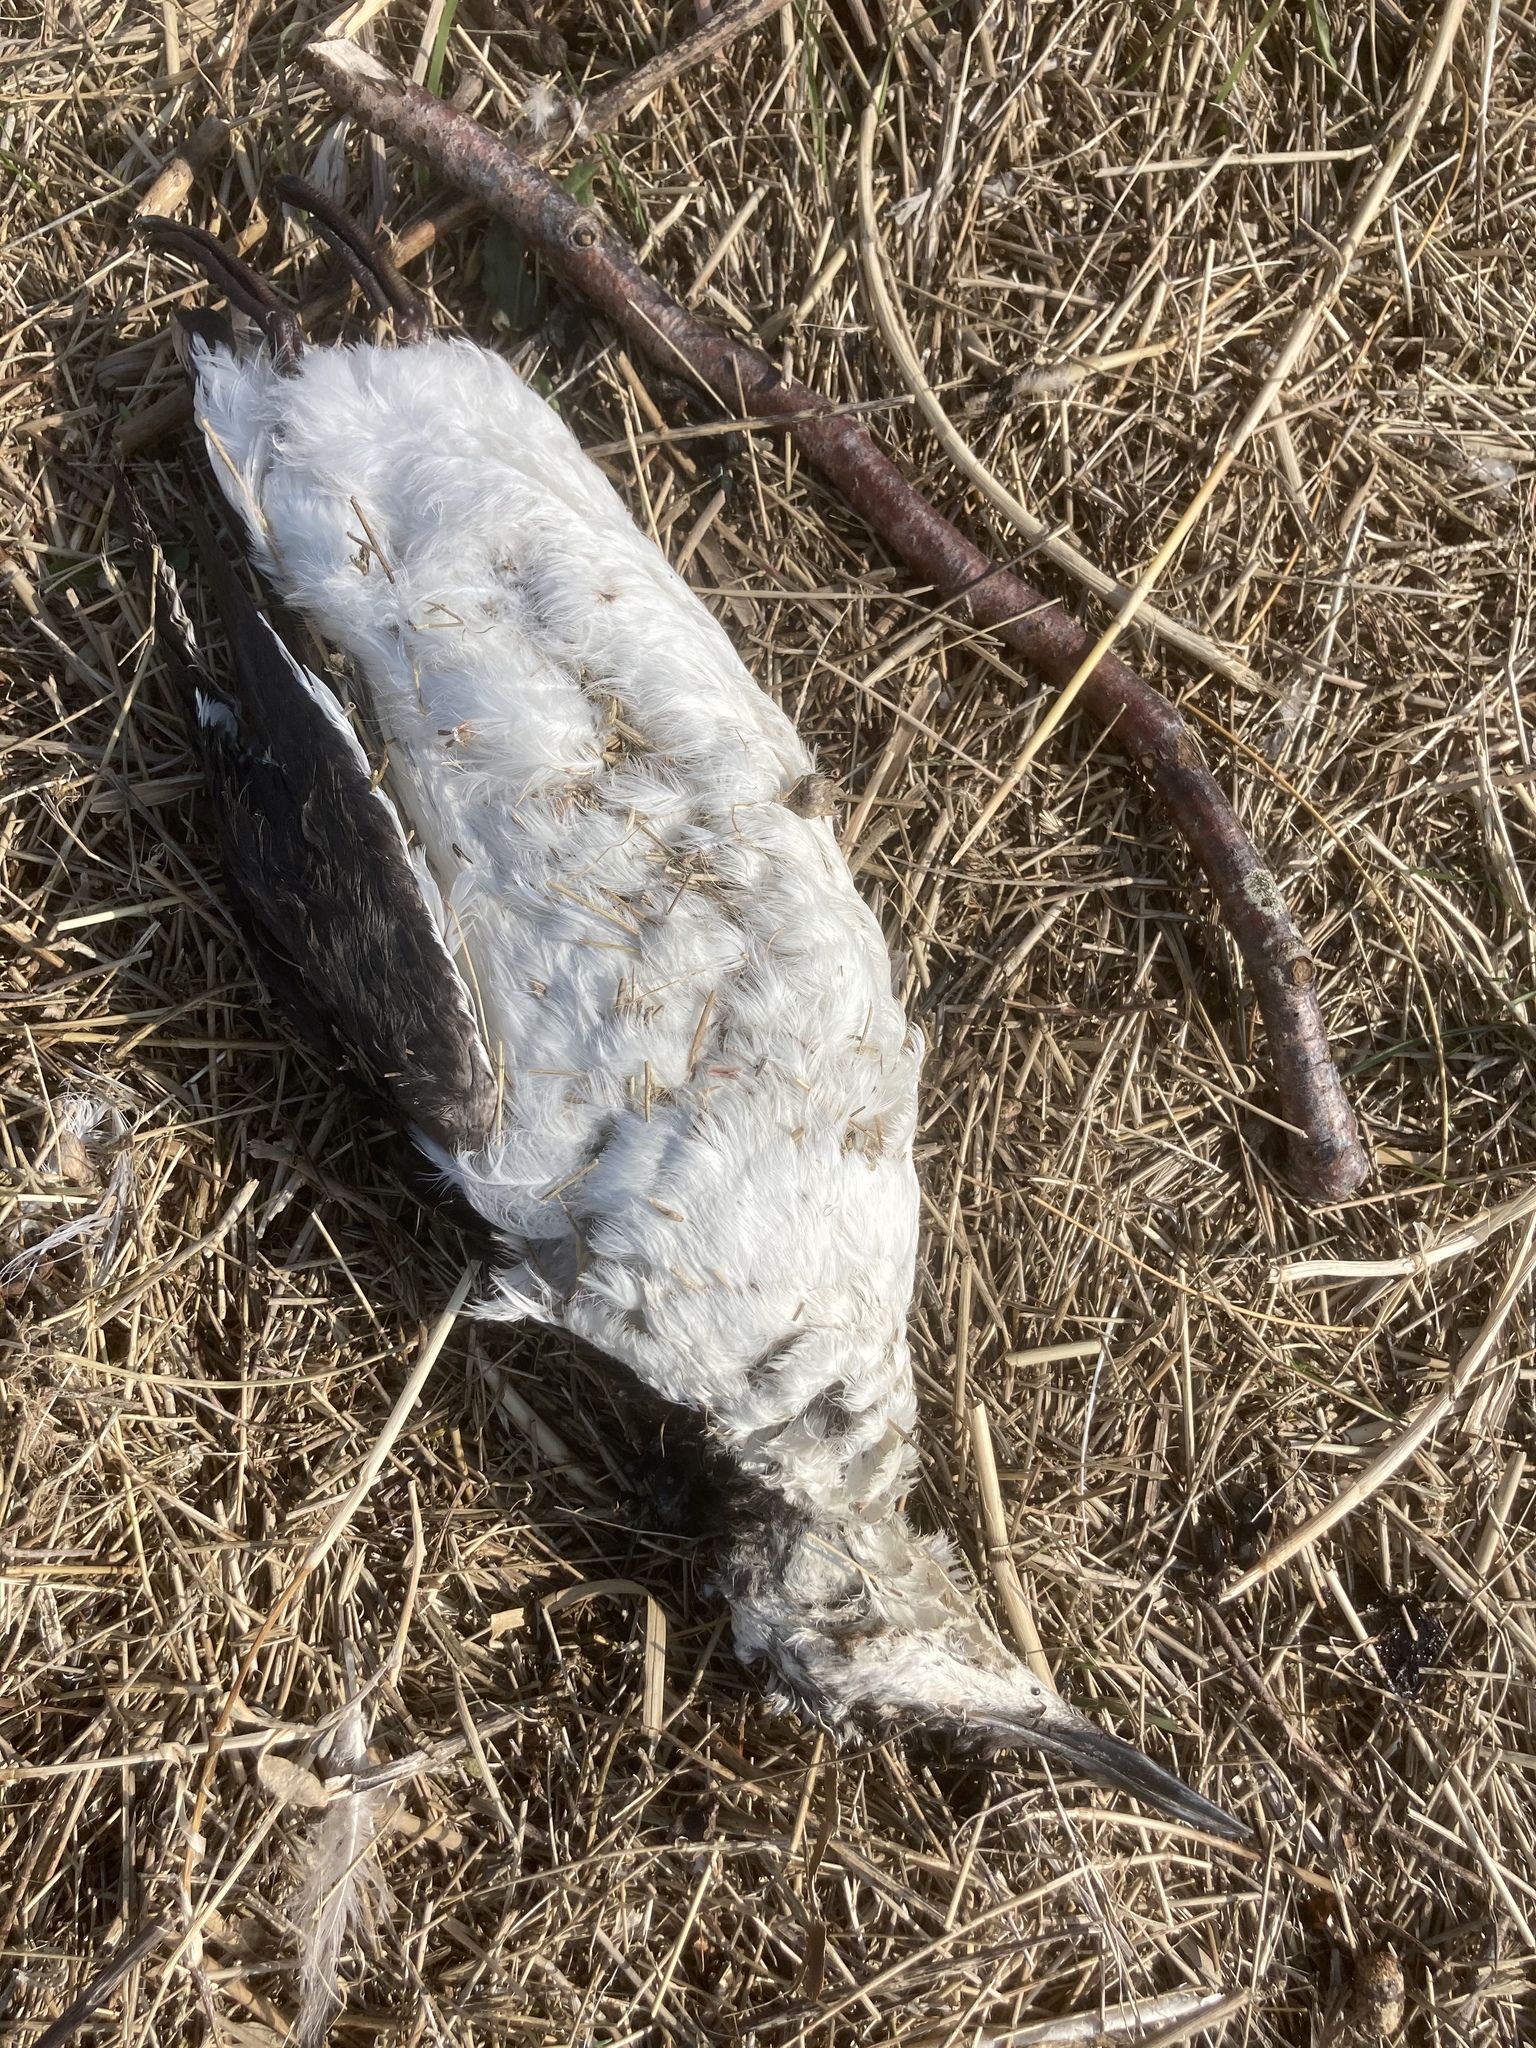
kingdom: Animalia
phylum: Chordata
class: Aves
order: Charadriiformes
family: Alcidae
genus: Uria
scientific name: Uria aalge
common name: Common murre
